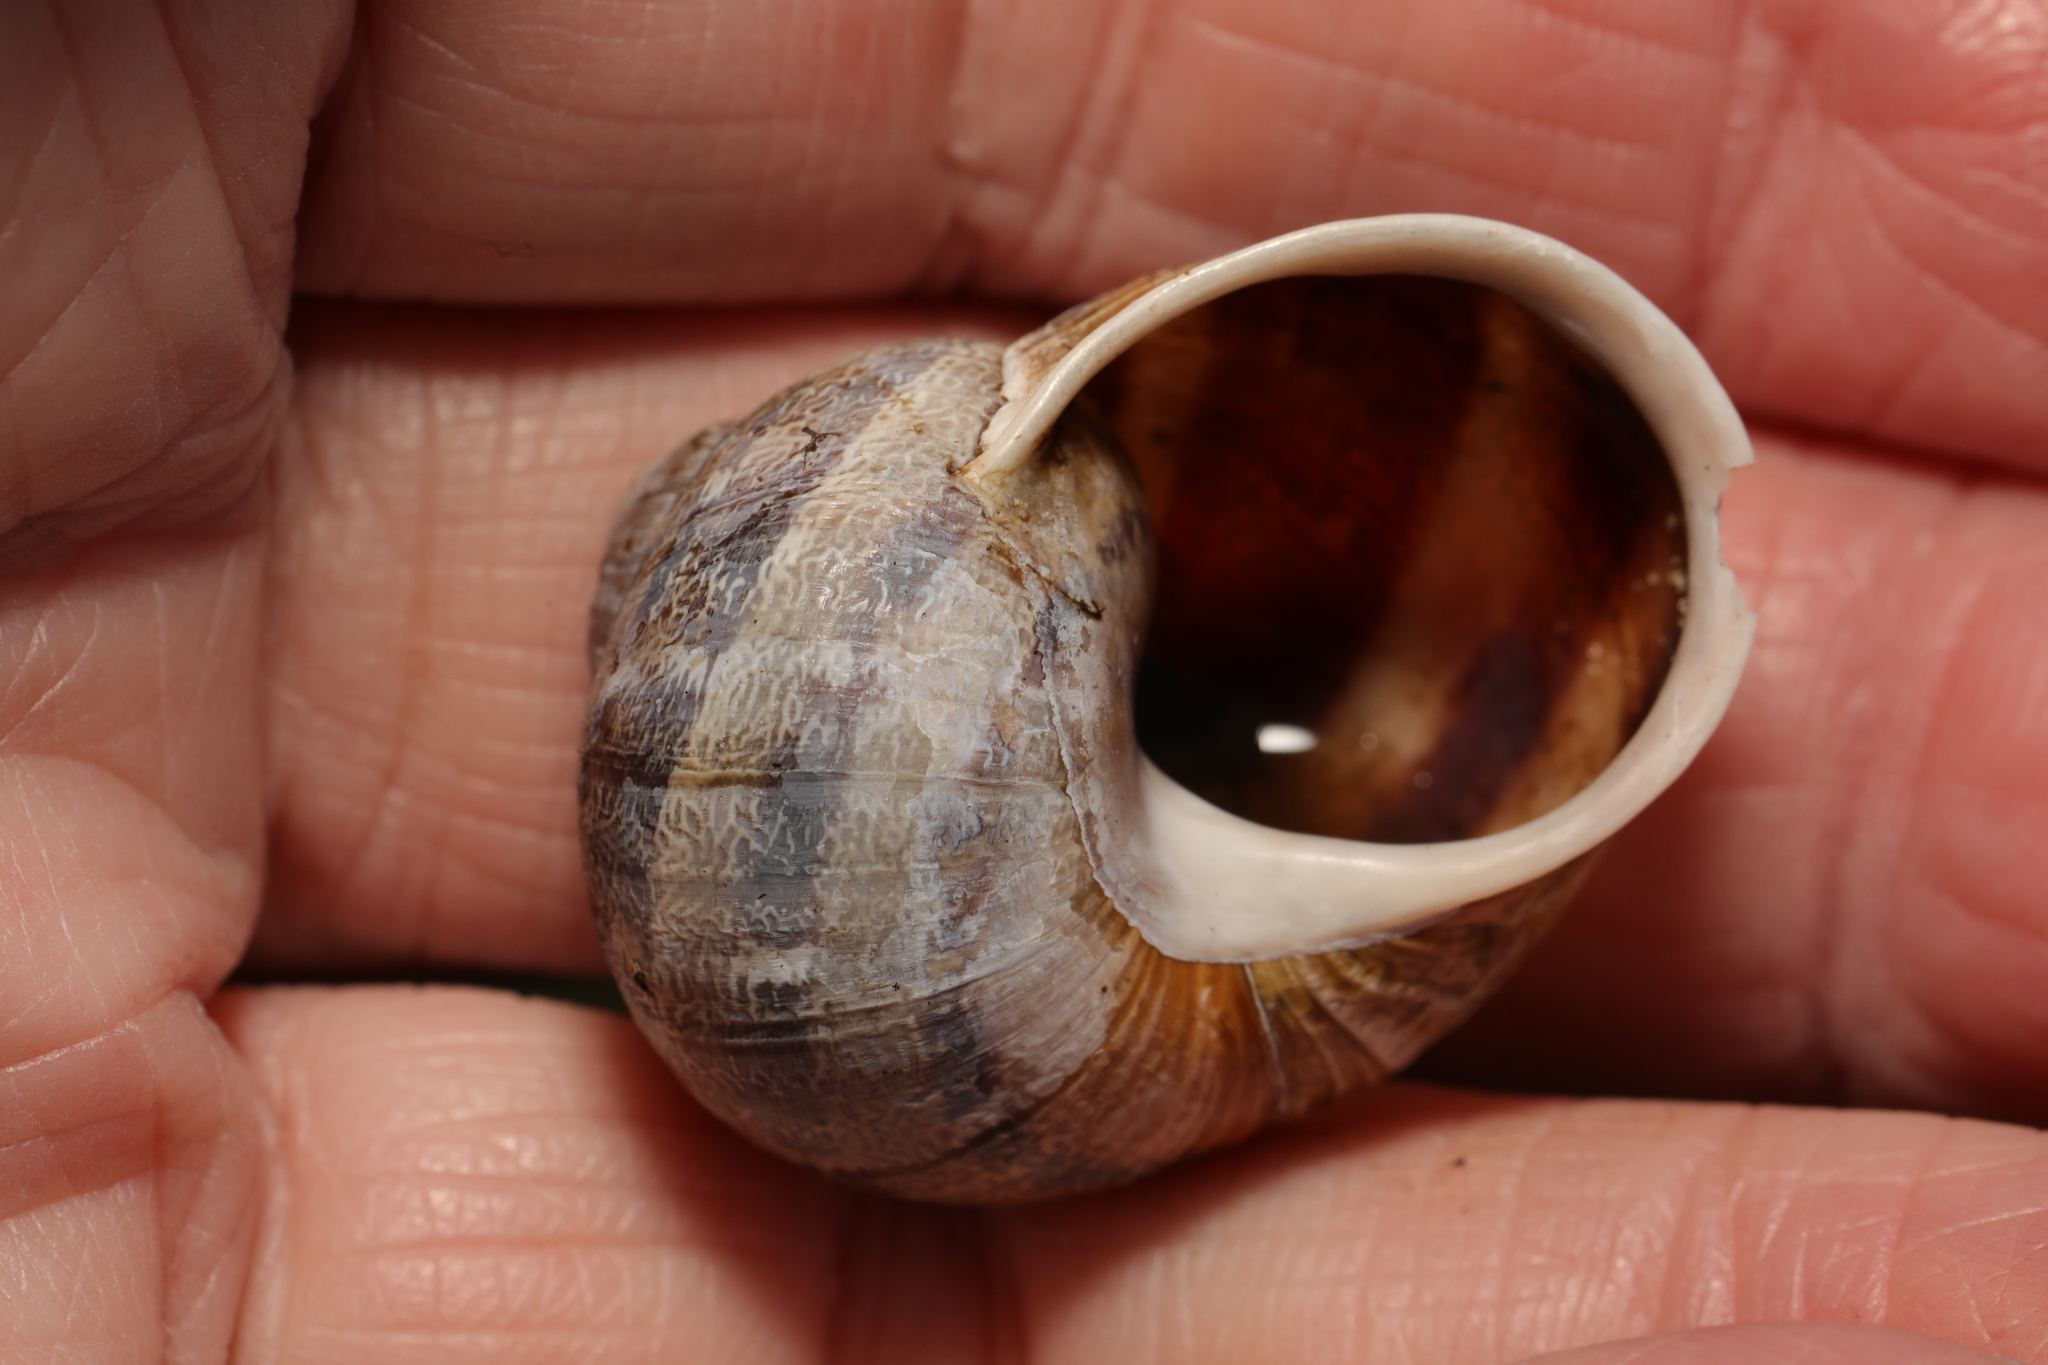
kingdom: Animalia
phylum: Mollusca
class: Gastropoda
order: Stylommatophora
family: Helicidae
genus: Cornu
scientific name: Cornu aspersum
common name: Brown garden snail
